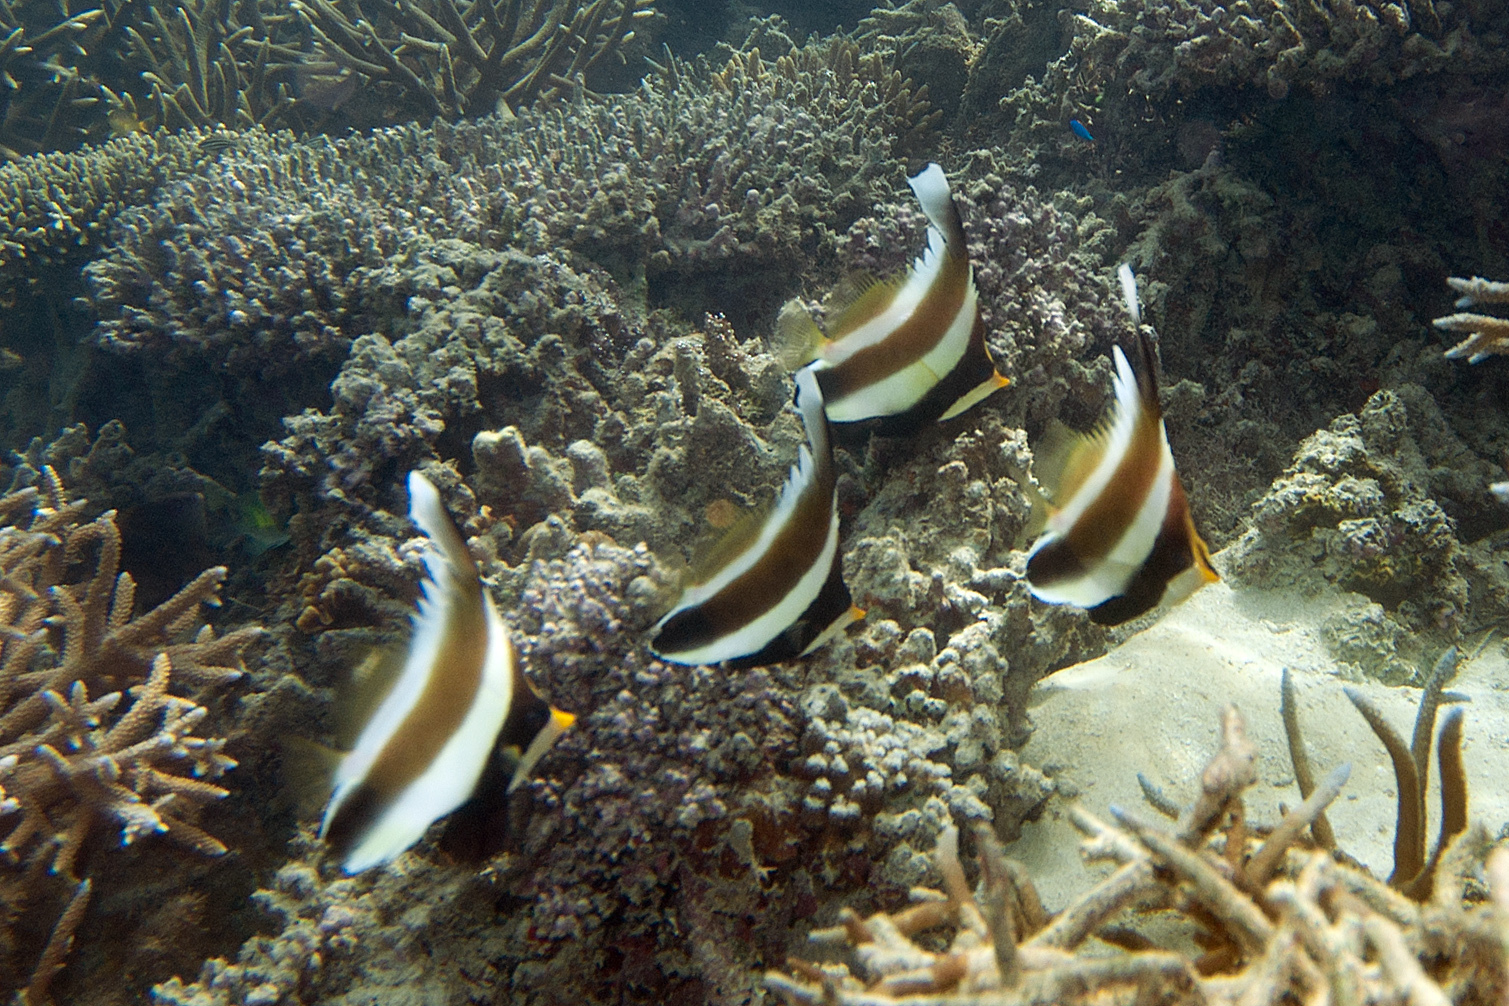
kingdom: Animalia
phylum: Chordata
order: Perciformes
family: Chaetodontidae
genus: Heniochus
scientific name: Heniochus chrysostomus
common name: Horned bannerfish
